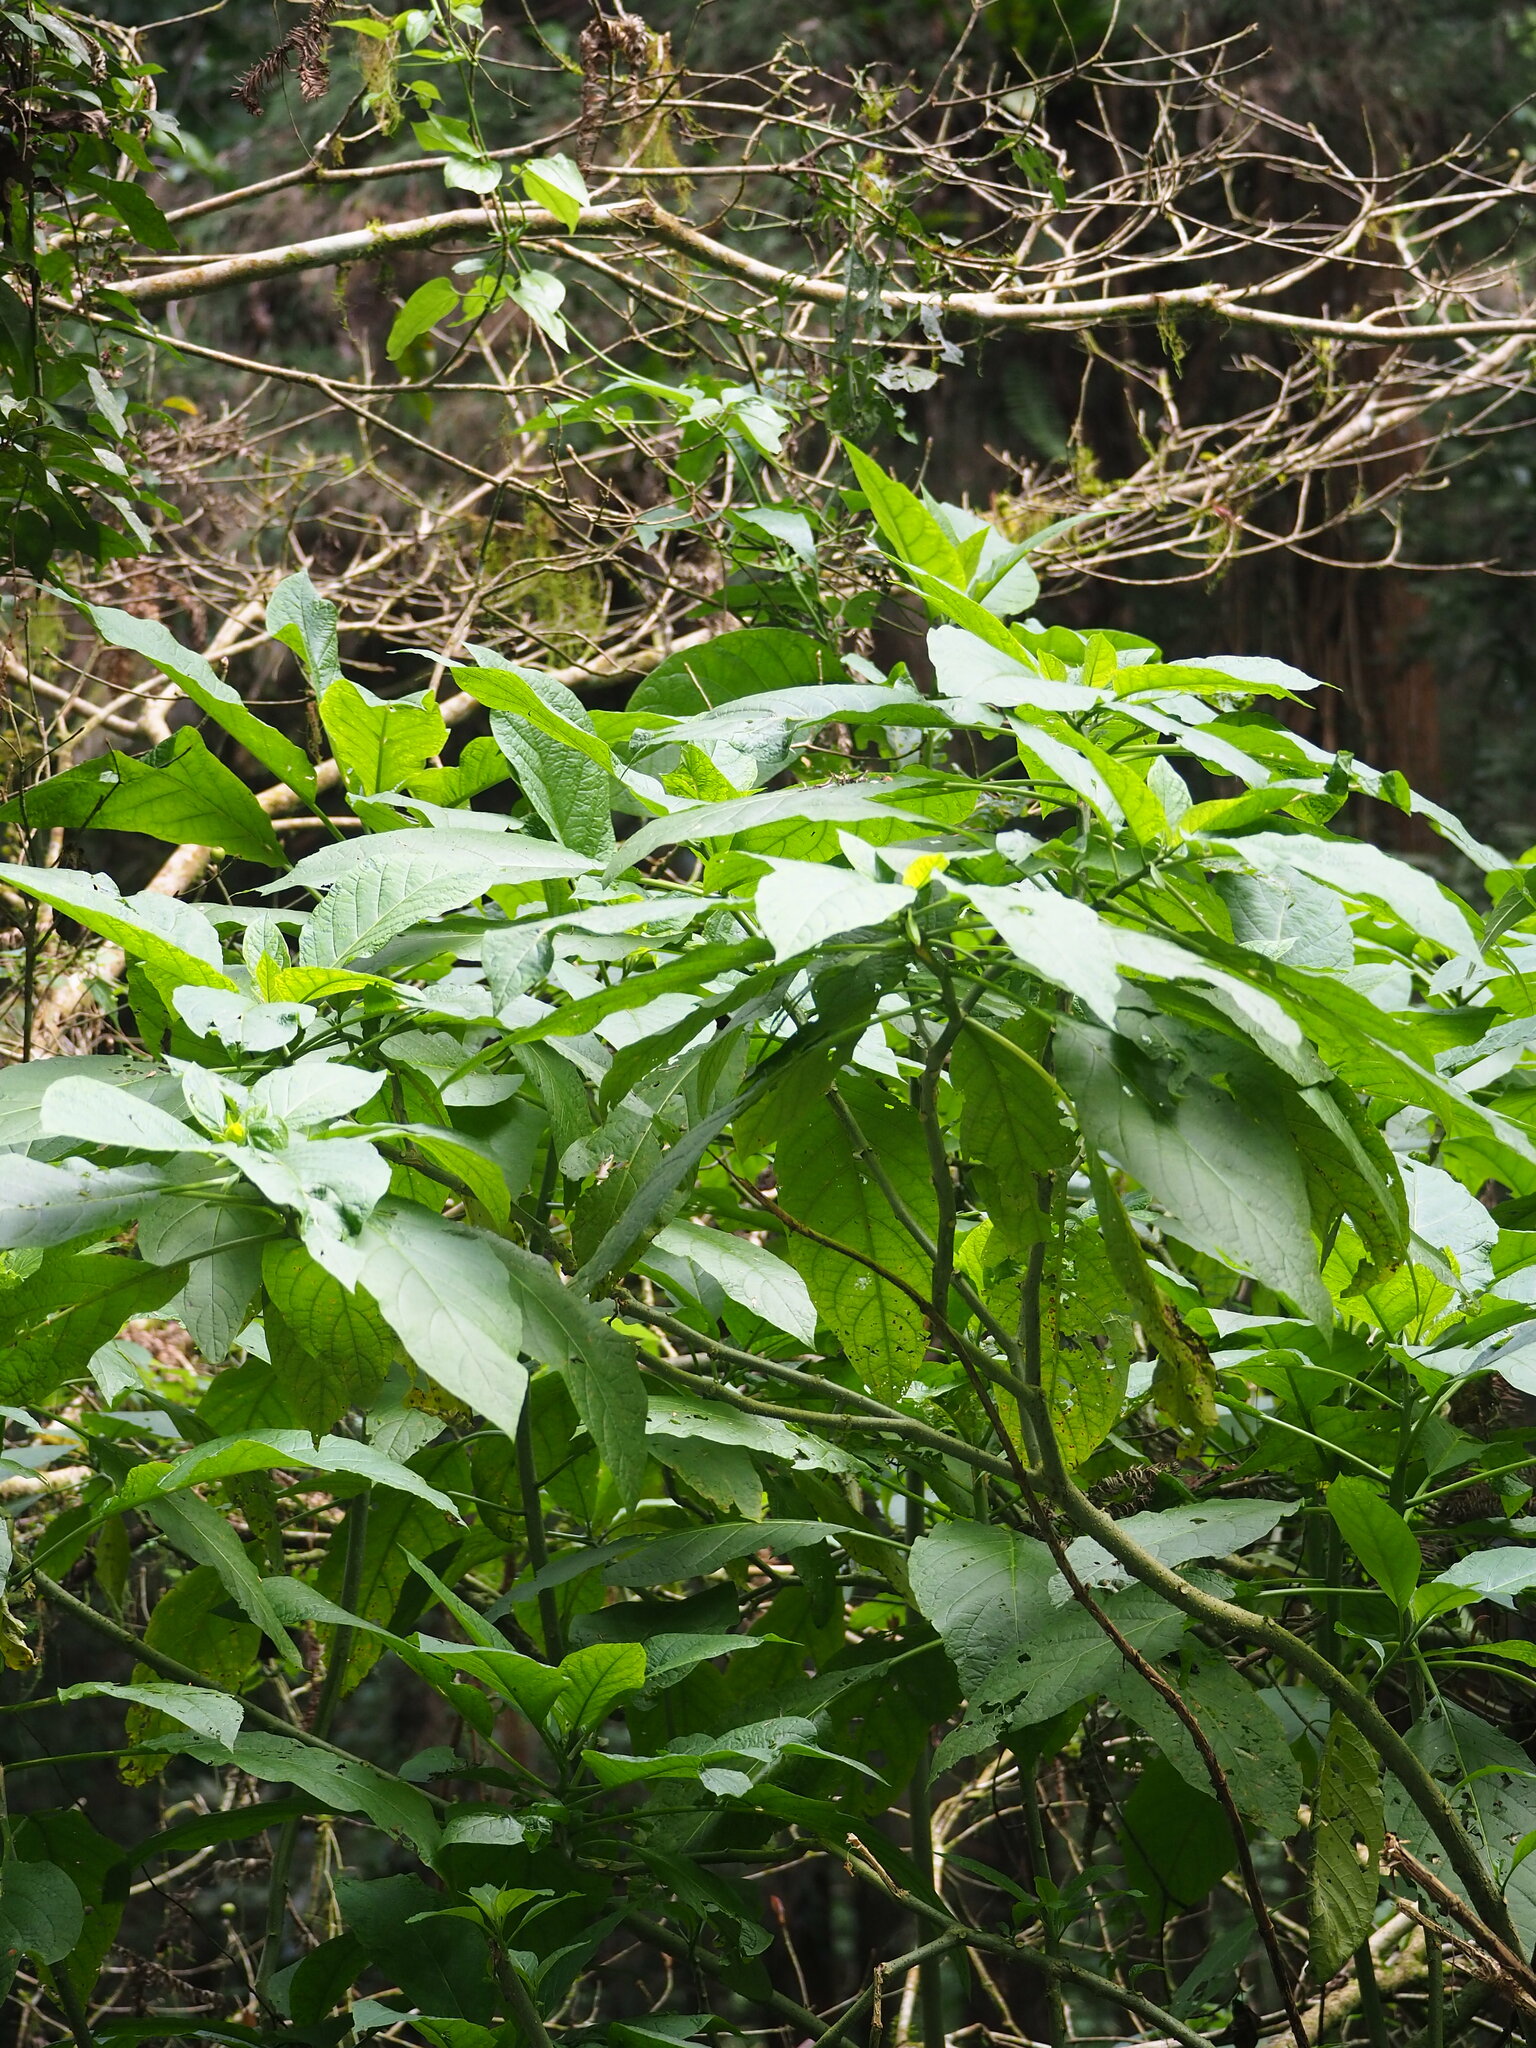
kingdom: Plantae
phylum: Tracheophyta
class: Magnoliopsida
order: Solanales
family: Solanaceae
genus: Brugmansia
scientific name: Brugmansia suaveolens
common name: Angel's tears
